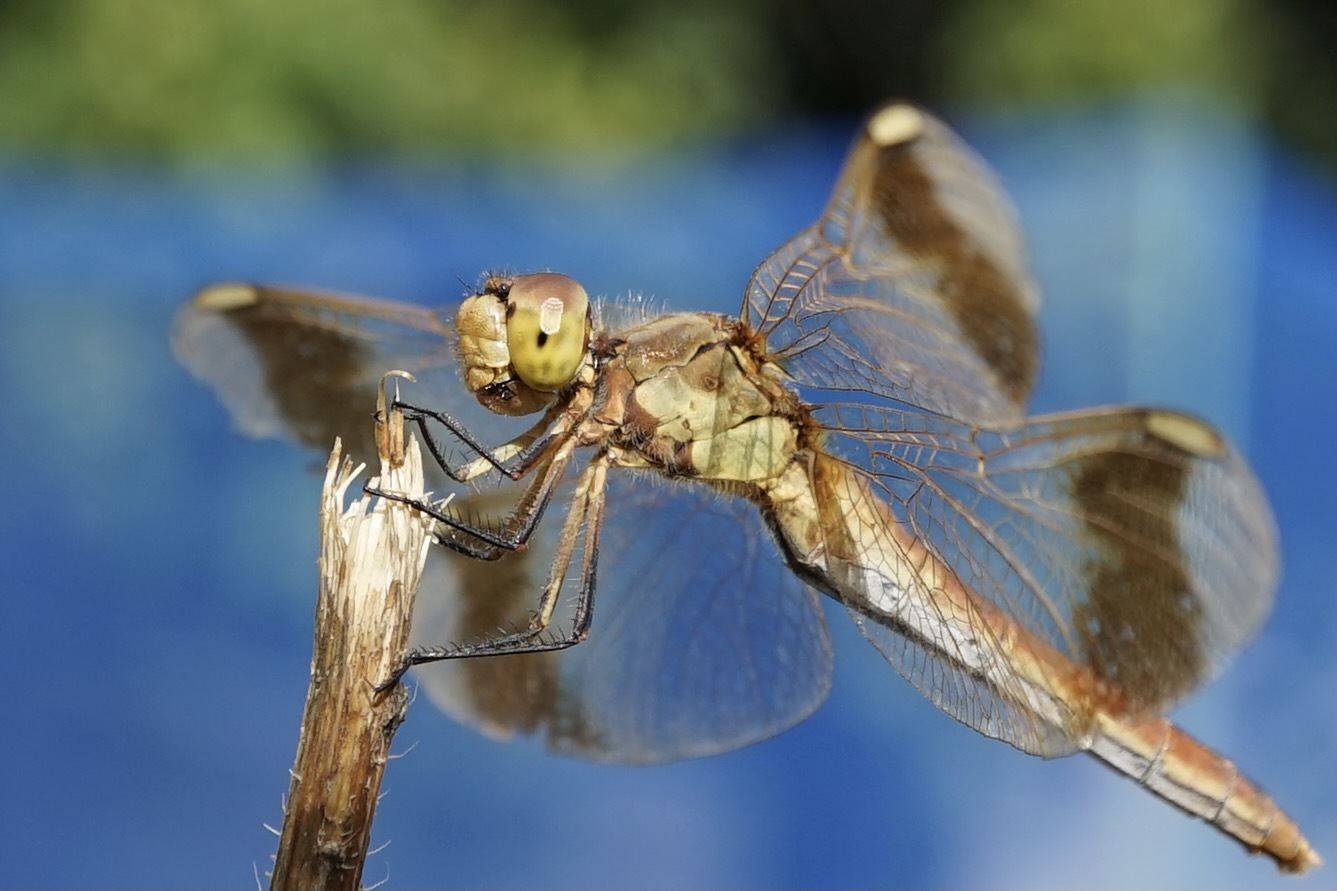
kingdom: Animalia
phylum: Arthropoda
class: Insecta
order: Odonata
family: Libellulidae
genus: Sympetrum
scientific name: Sympetrum pedemontanum
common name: Banded darter
